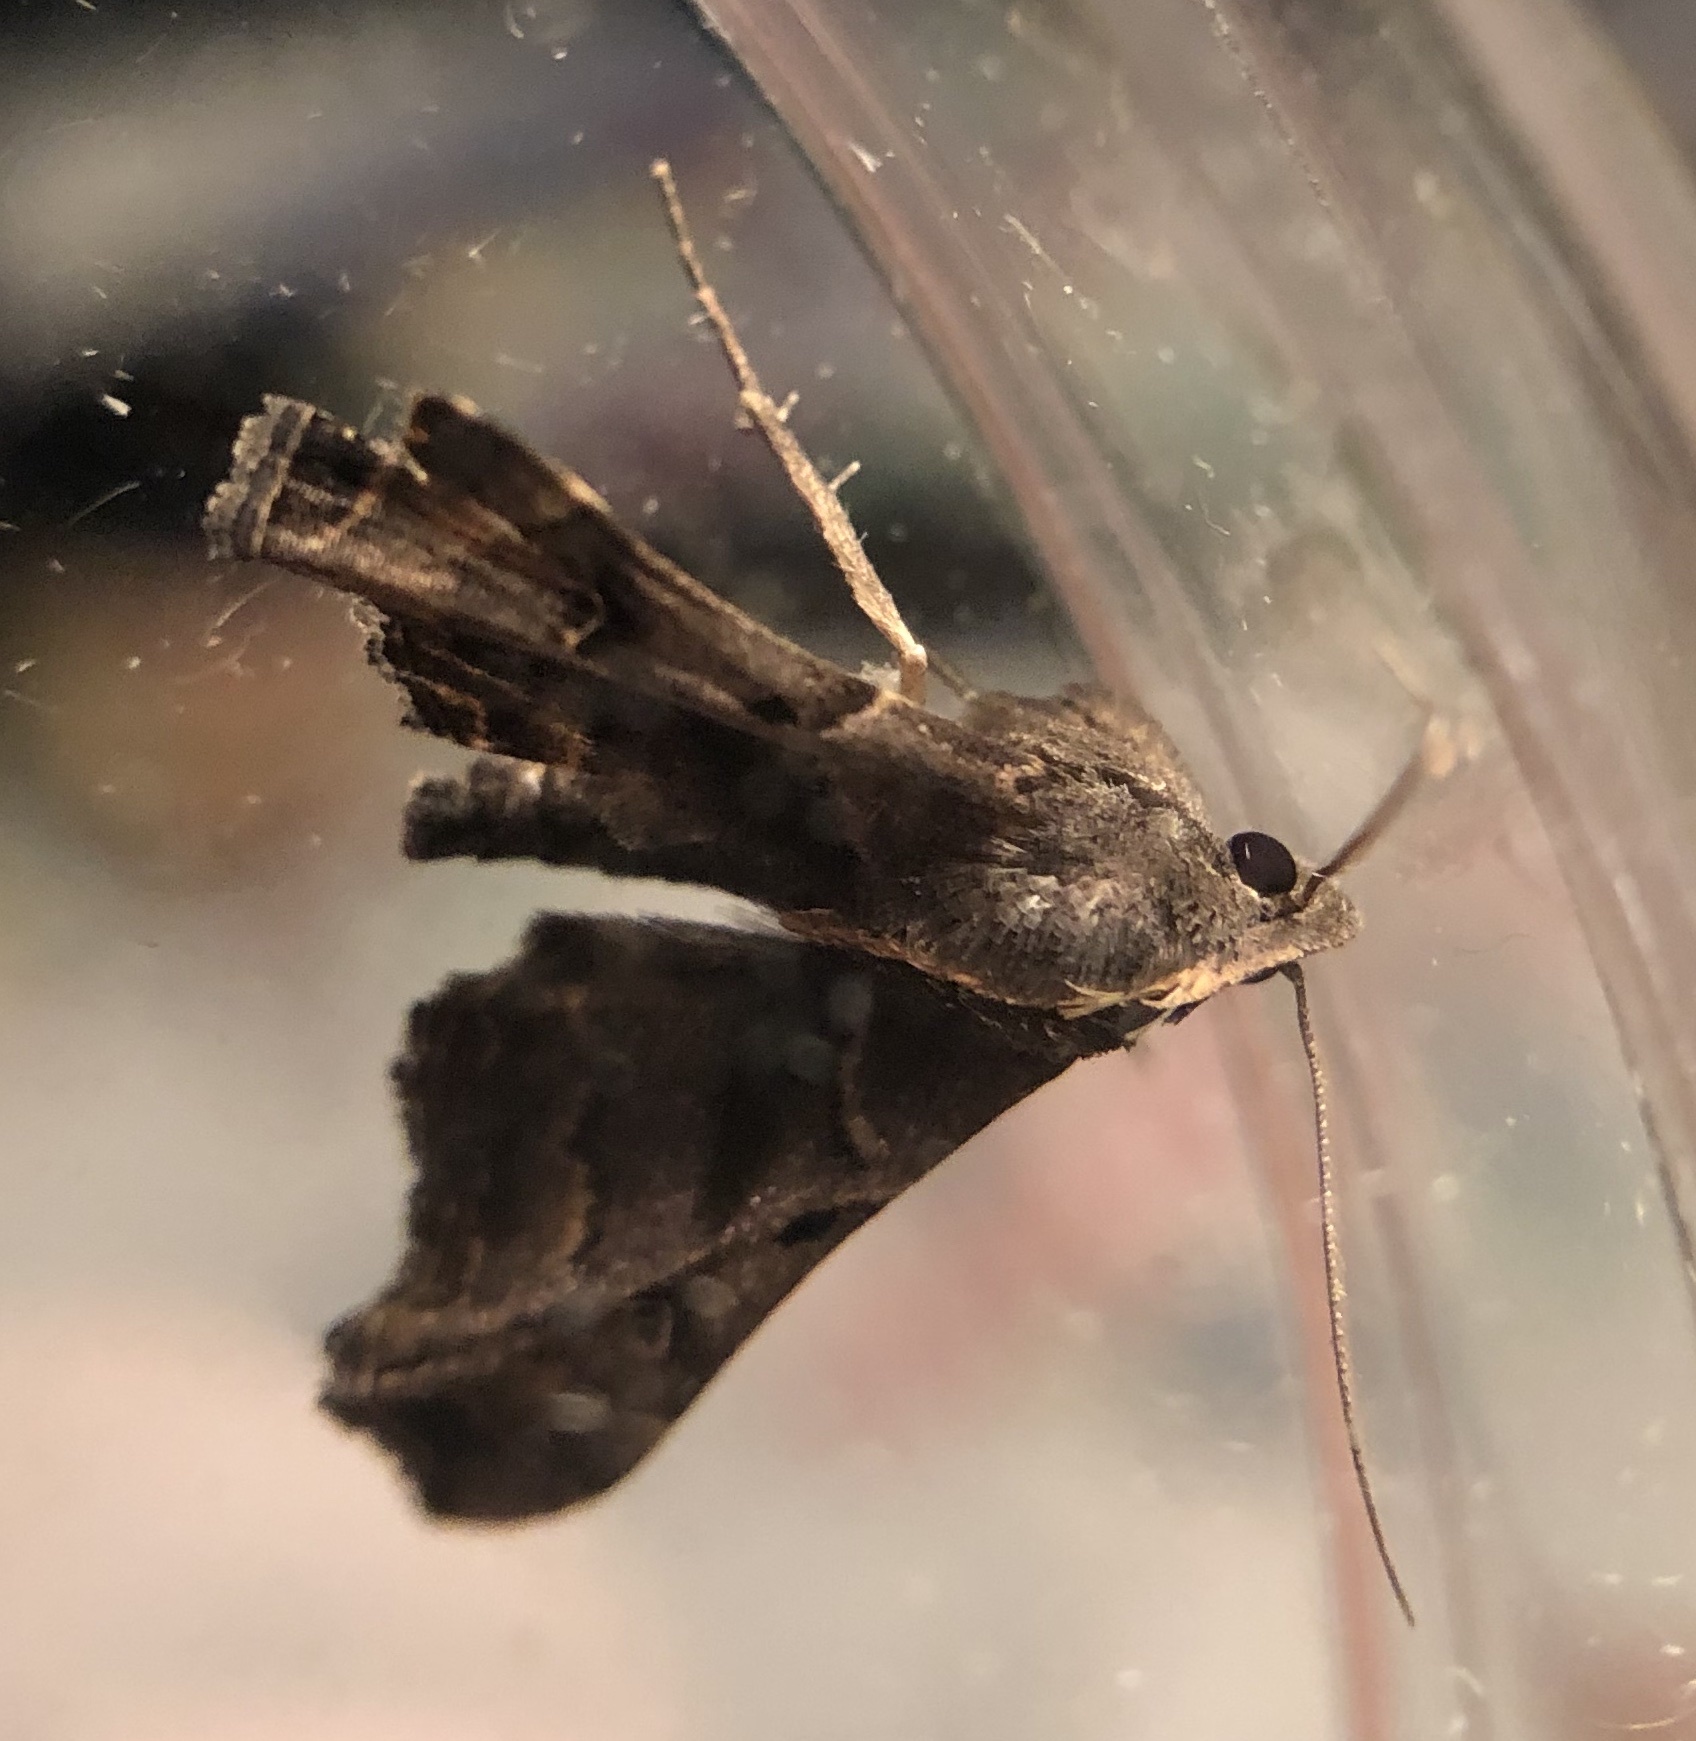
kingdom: Animalia
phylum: Arthropoda
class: Insecta
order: Lepidoptera
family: Erebidae
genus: Palthis
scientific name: Palthis asopialis
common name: Faint-spotted palthis moth
